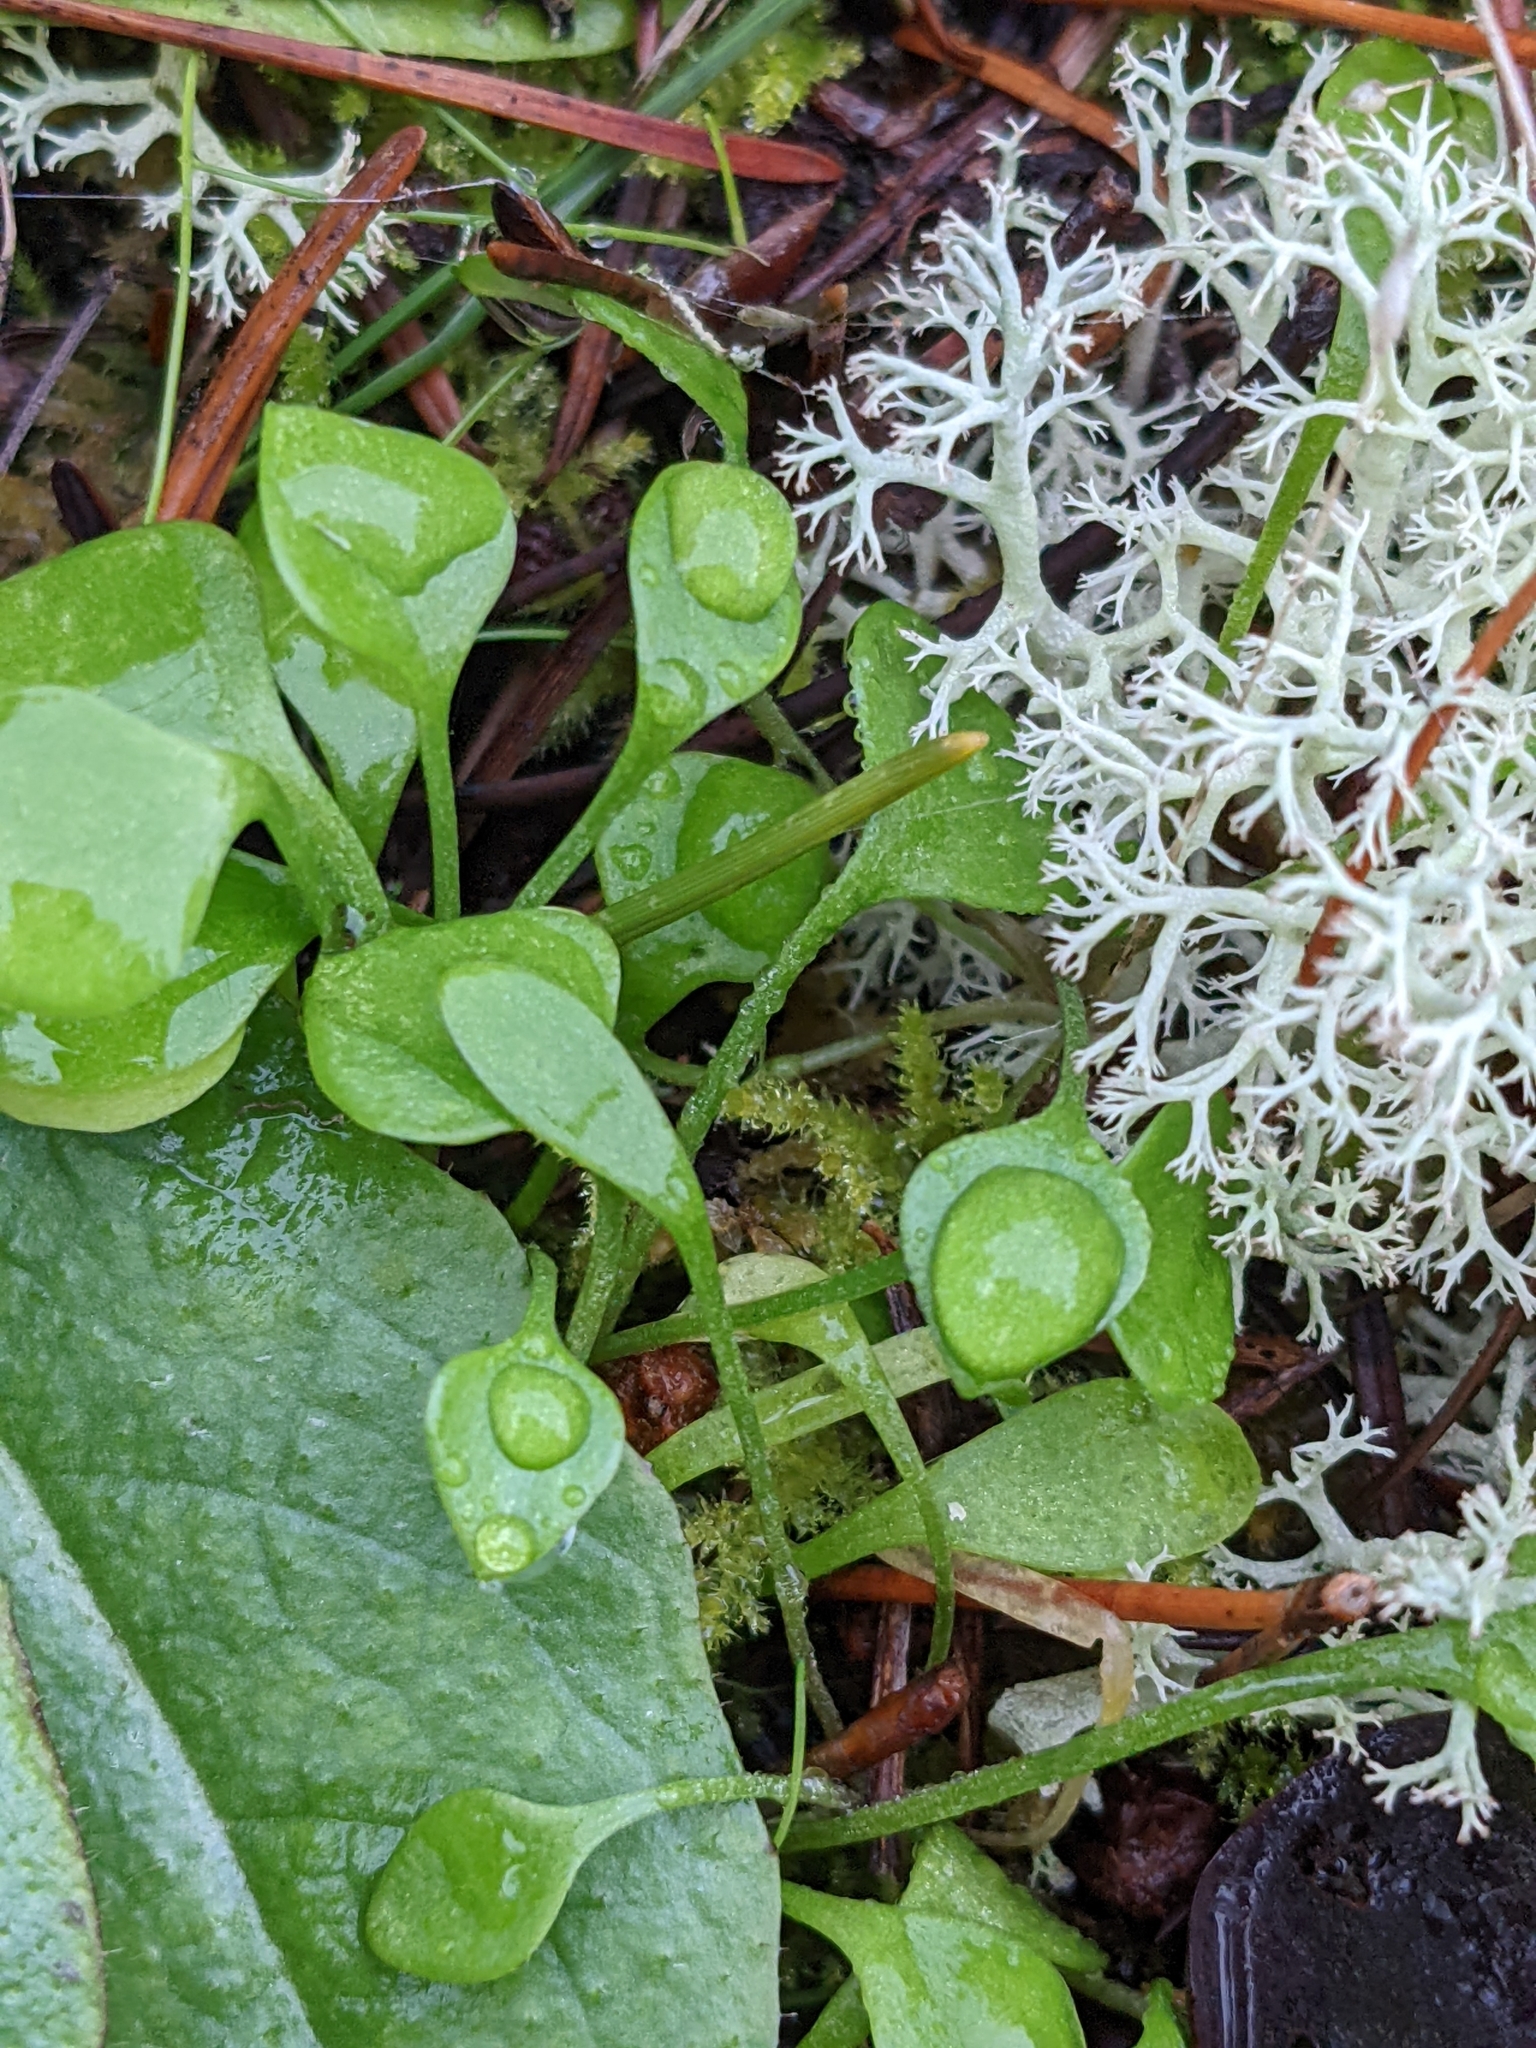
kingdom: Plantae
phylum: Tracheophyta
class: Magnoliopsida
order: Caryophyllales
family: Montiaceae
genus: Claytonia
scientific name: Claytonia perfoliata
